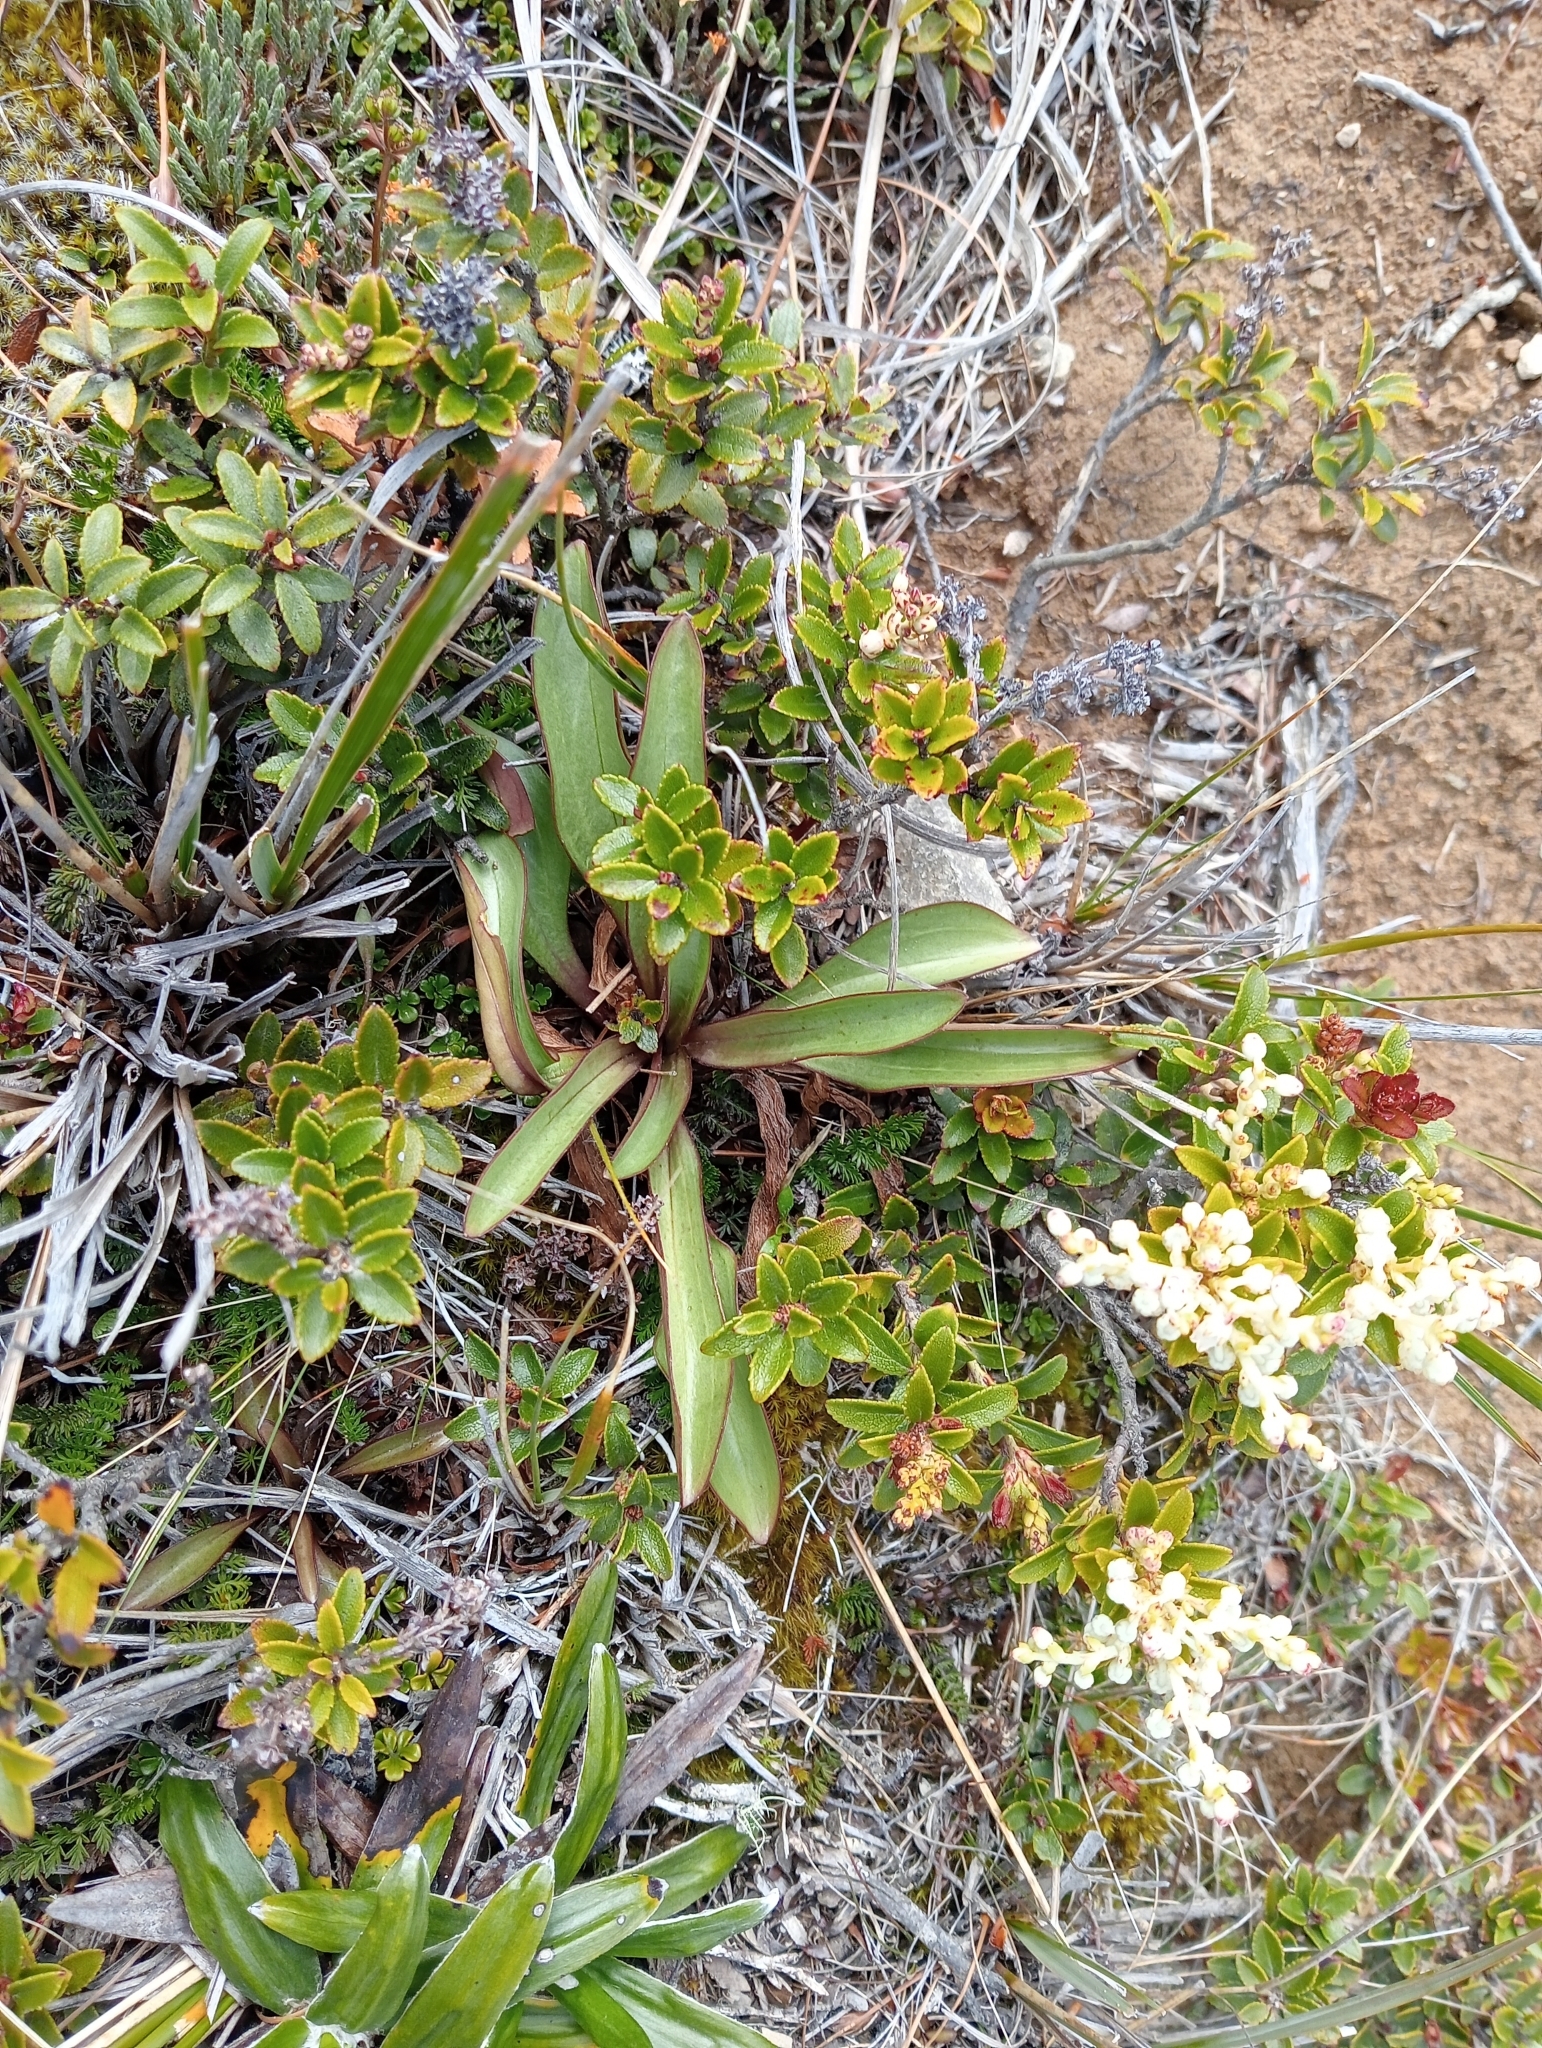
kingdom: Plantae
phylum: Tracheophyta
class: Magnoliopsida
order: Gentianales
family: Gentianaceae
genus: Gentianella
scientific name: Gentianella corymbifera
